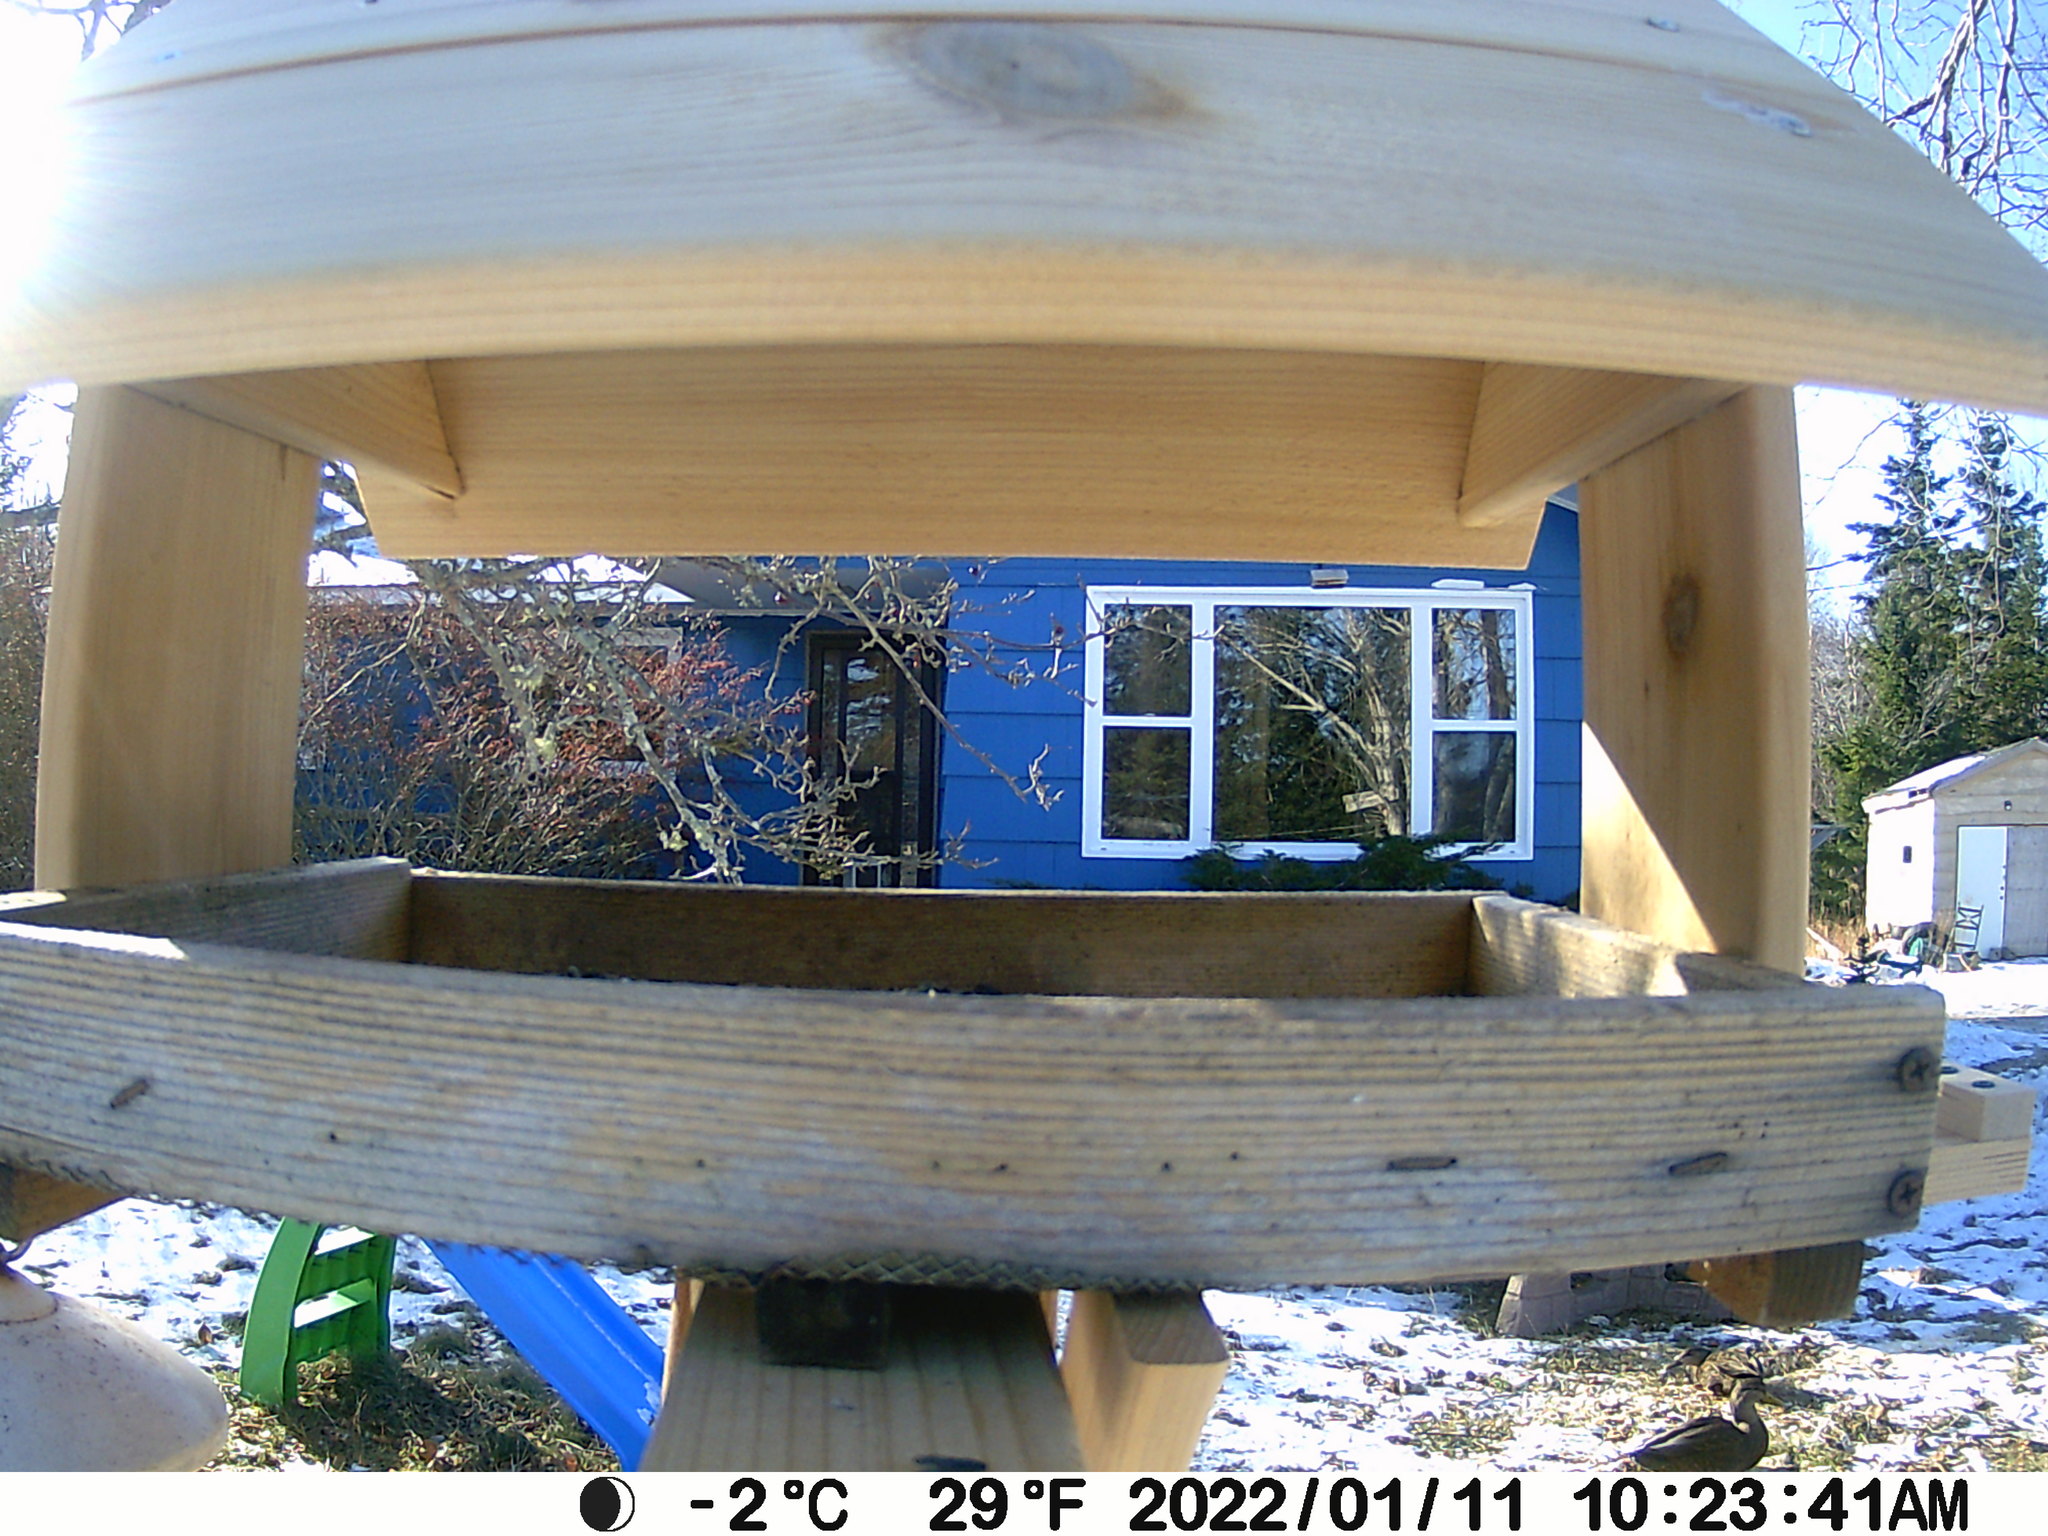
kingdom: Animalia
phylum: Chordata
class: Aves
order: Anseriformes
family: Anatidae
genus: Anas
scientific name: Anas rubripes
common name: American black duck
